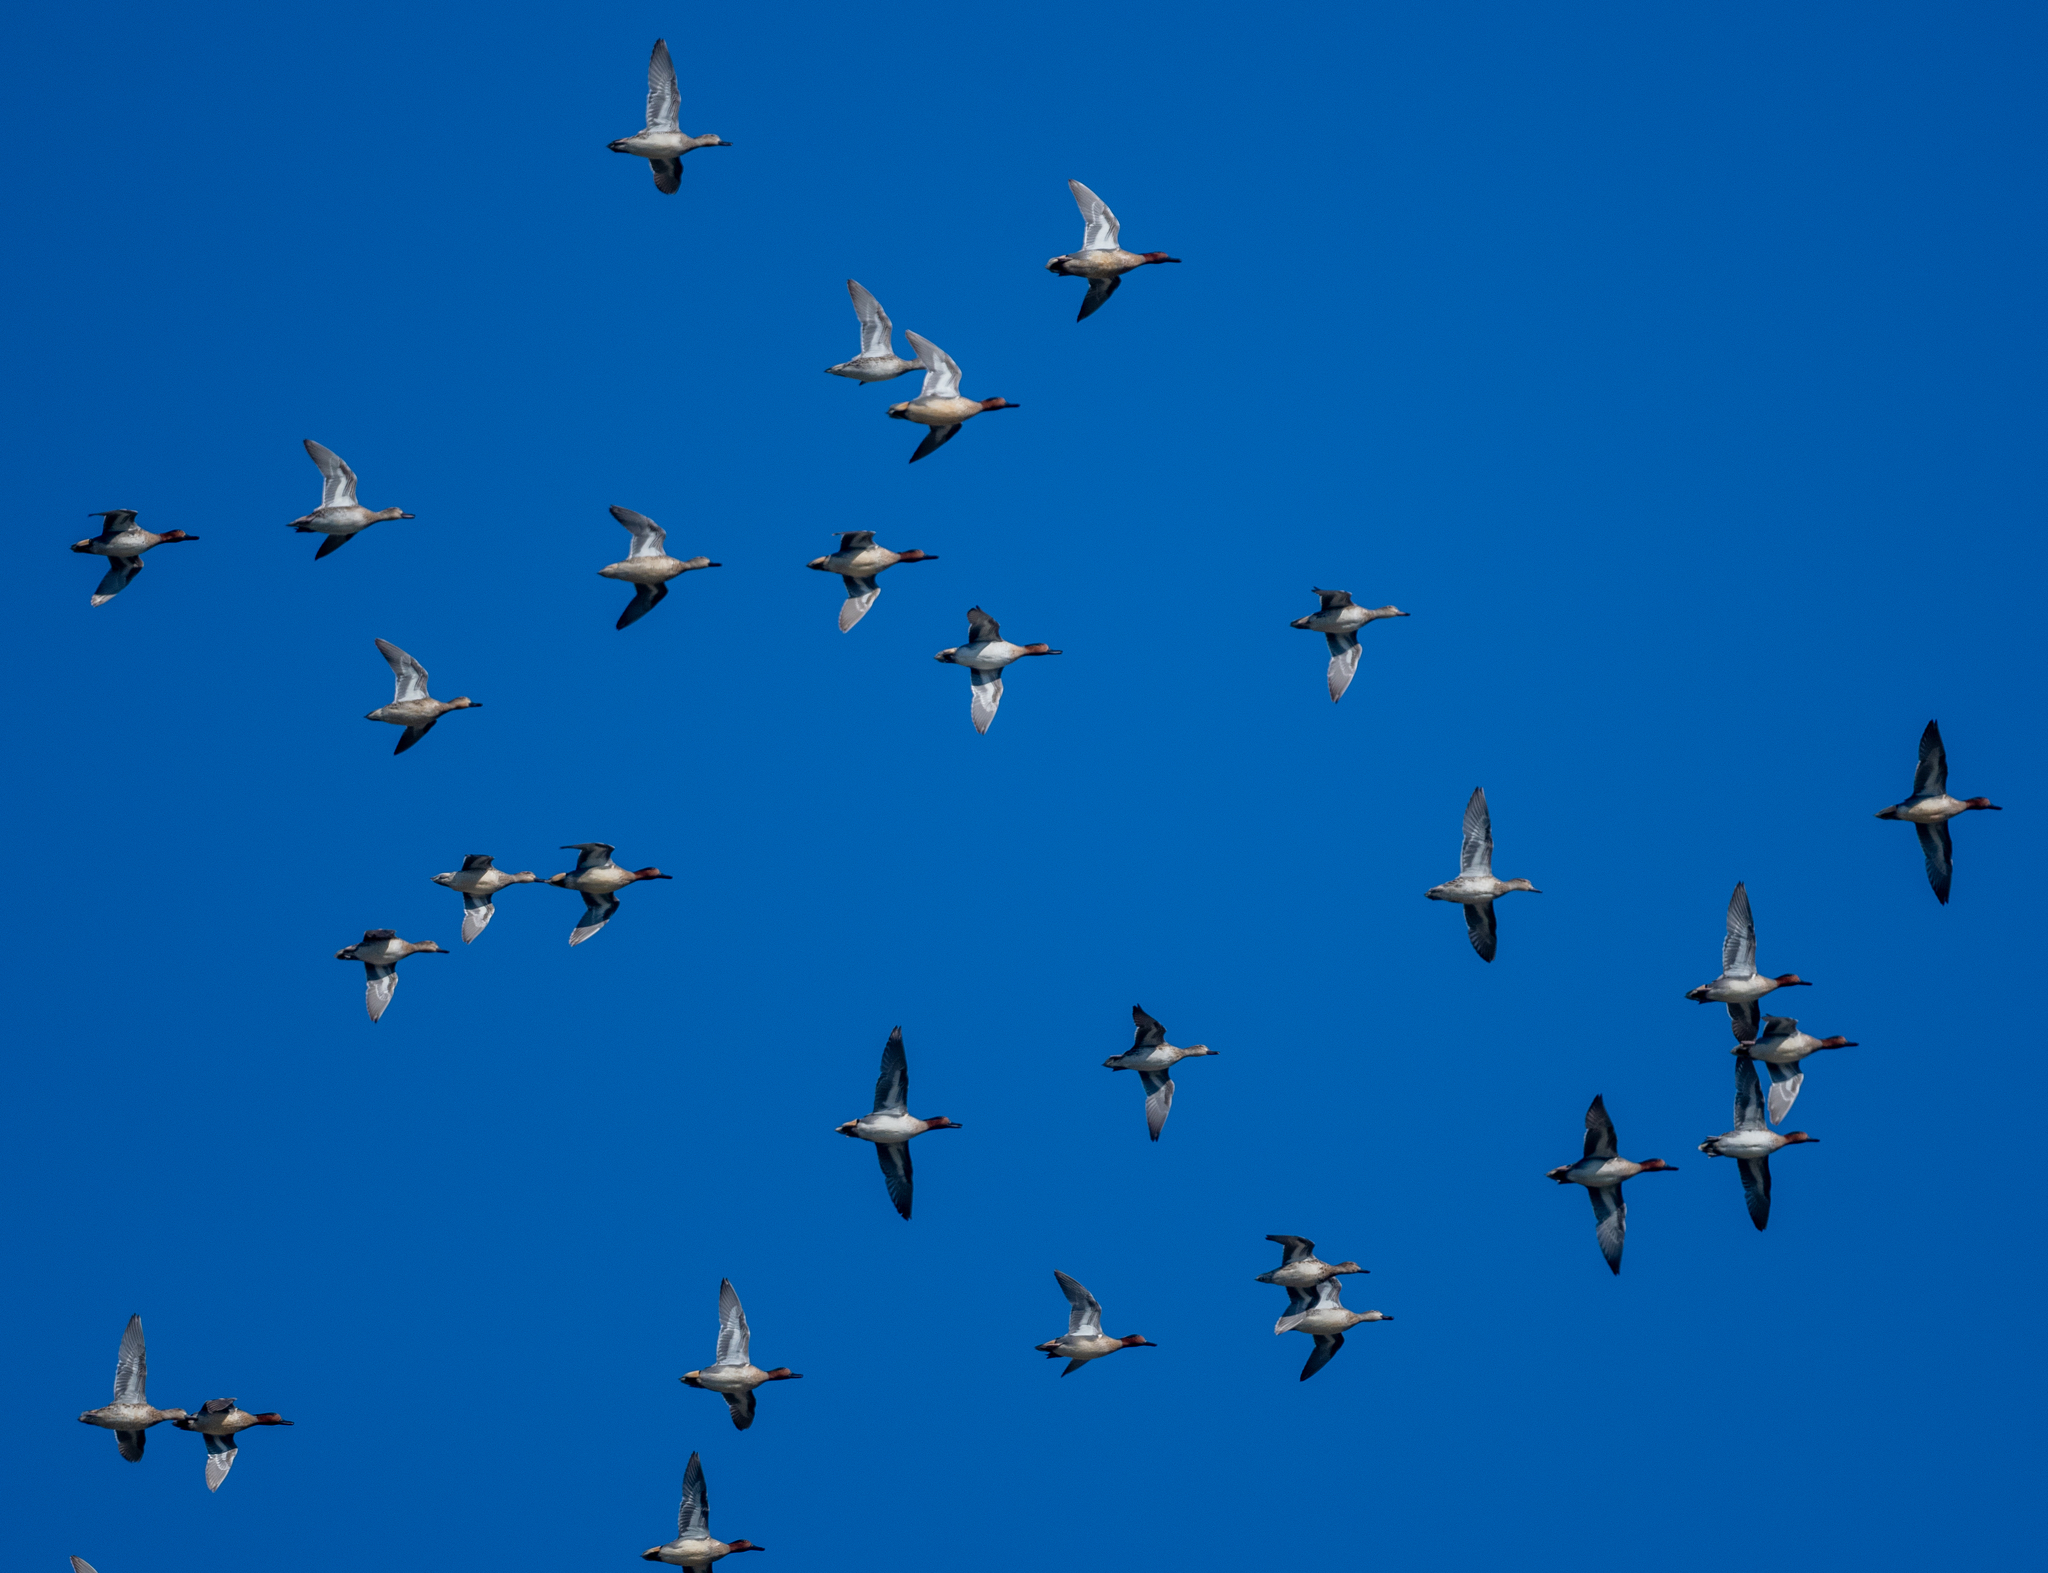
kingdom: Animalia
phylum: Chordata
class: Aves
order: Anseriformes
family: Anatidae
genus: Anas
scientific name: Anas crecca
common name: Eurasian teal
